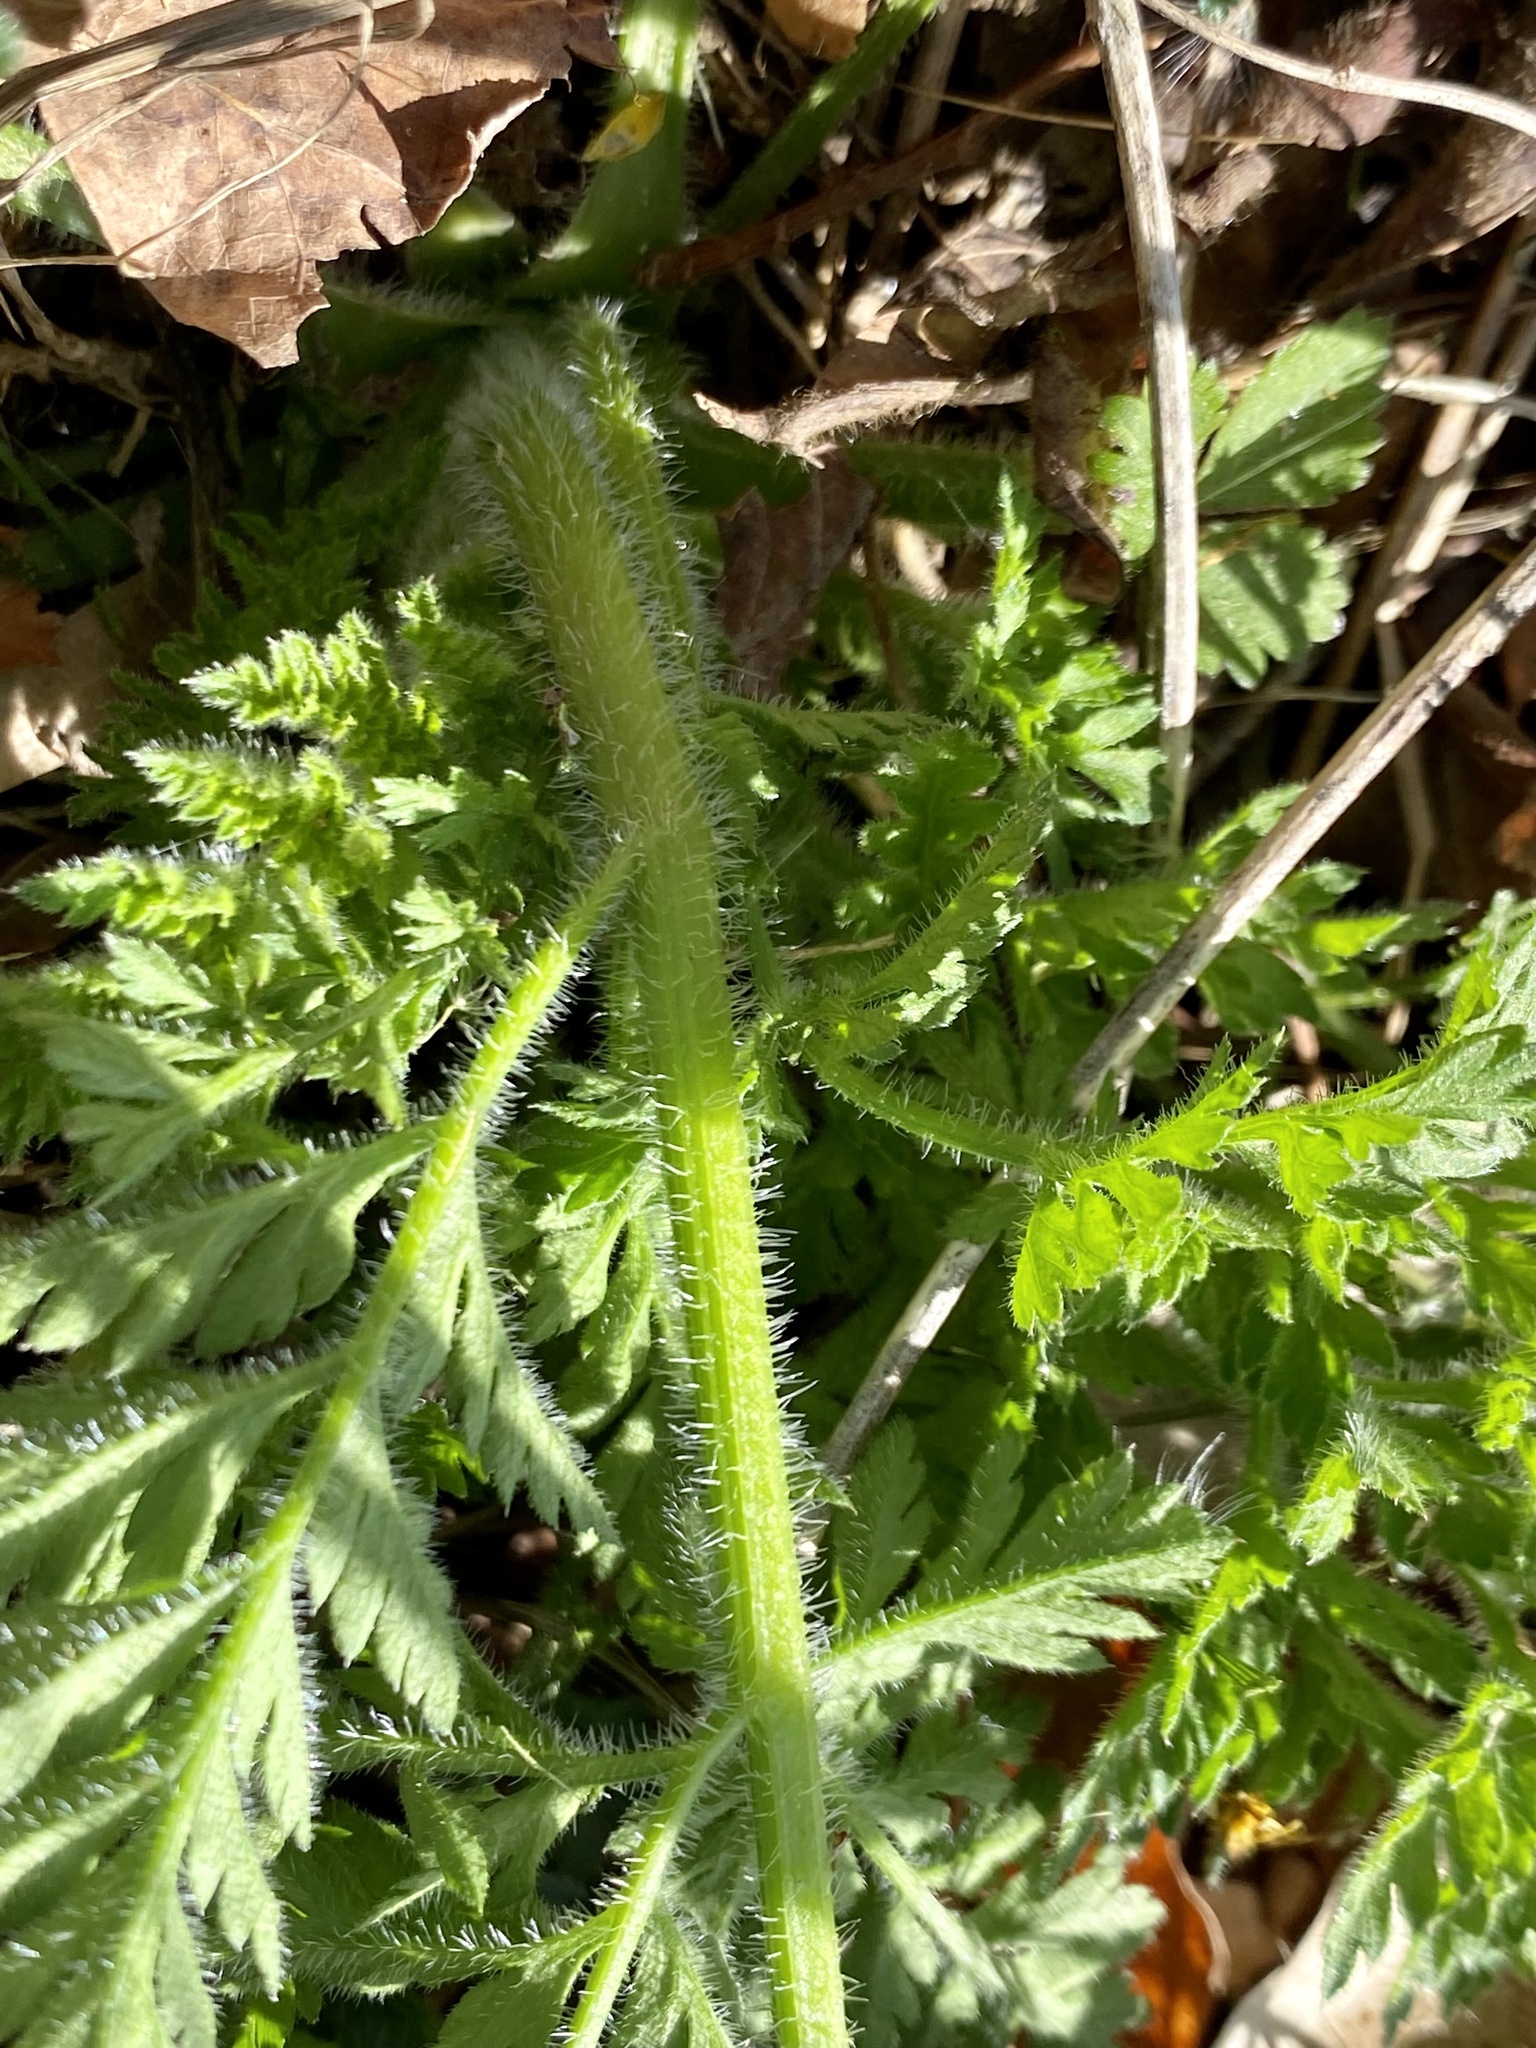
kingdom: Plantae
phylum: Tracheophyta
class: Magnoliopsida
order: Apiales
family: Apiaceae
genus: Daucus
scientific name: Daucus carota
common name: Wild carrot
